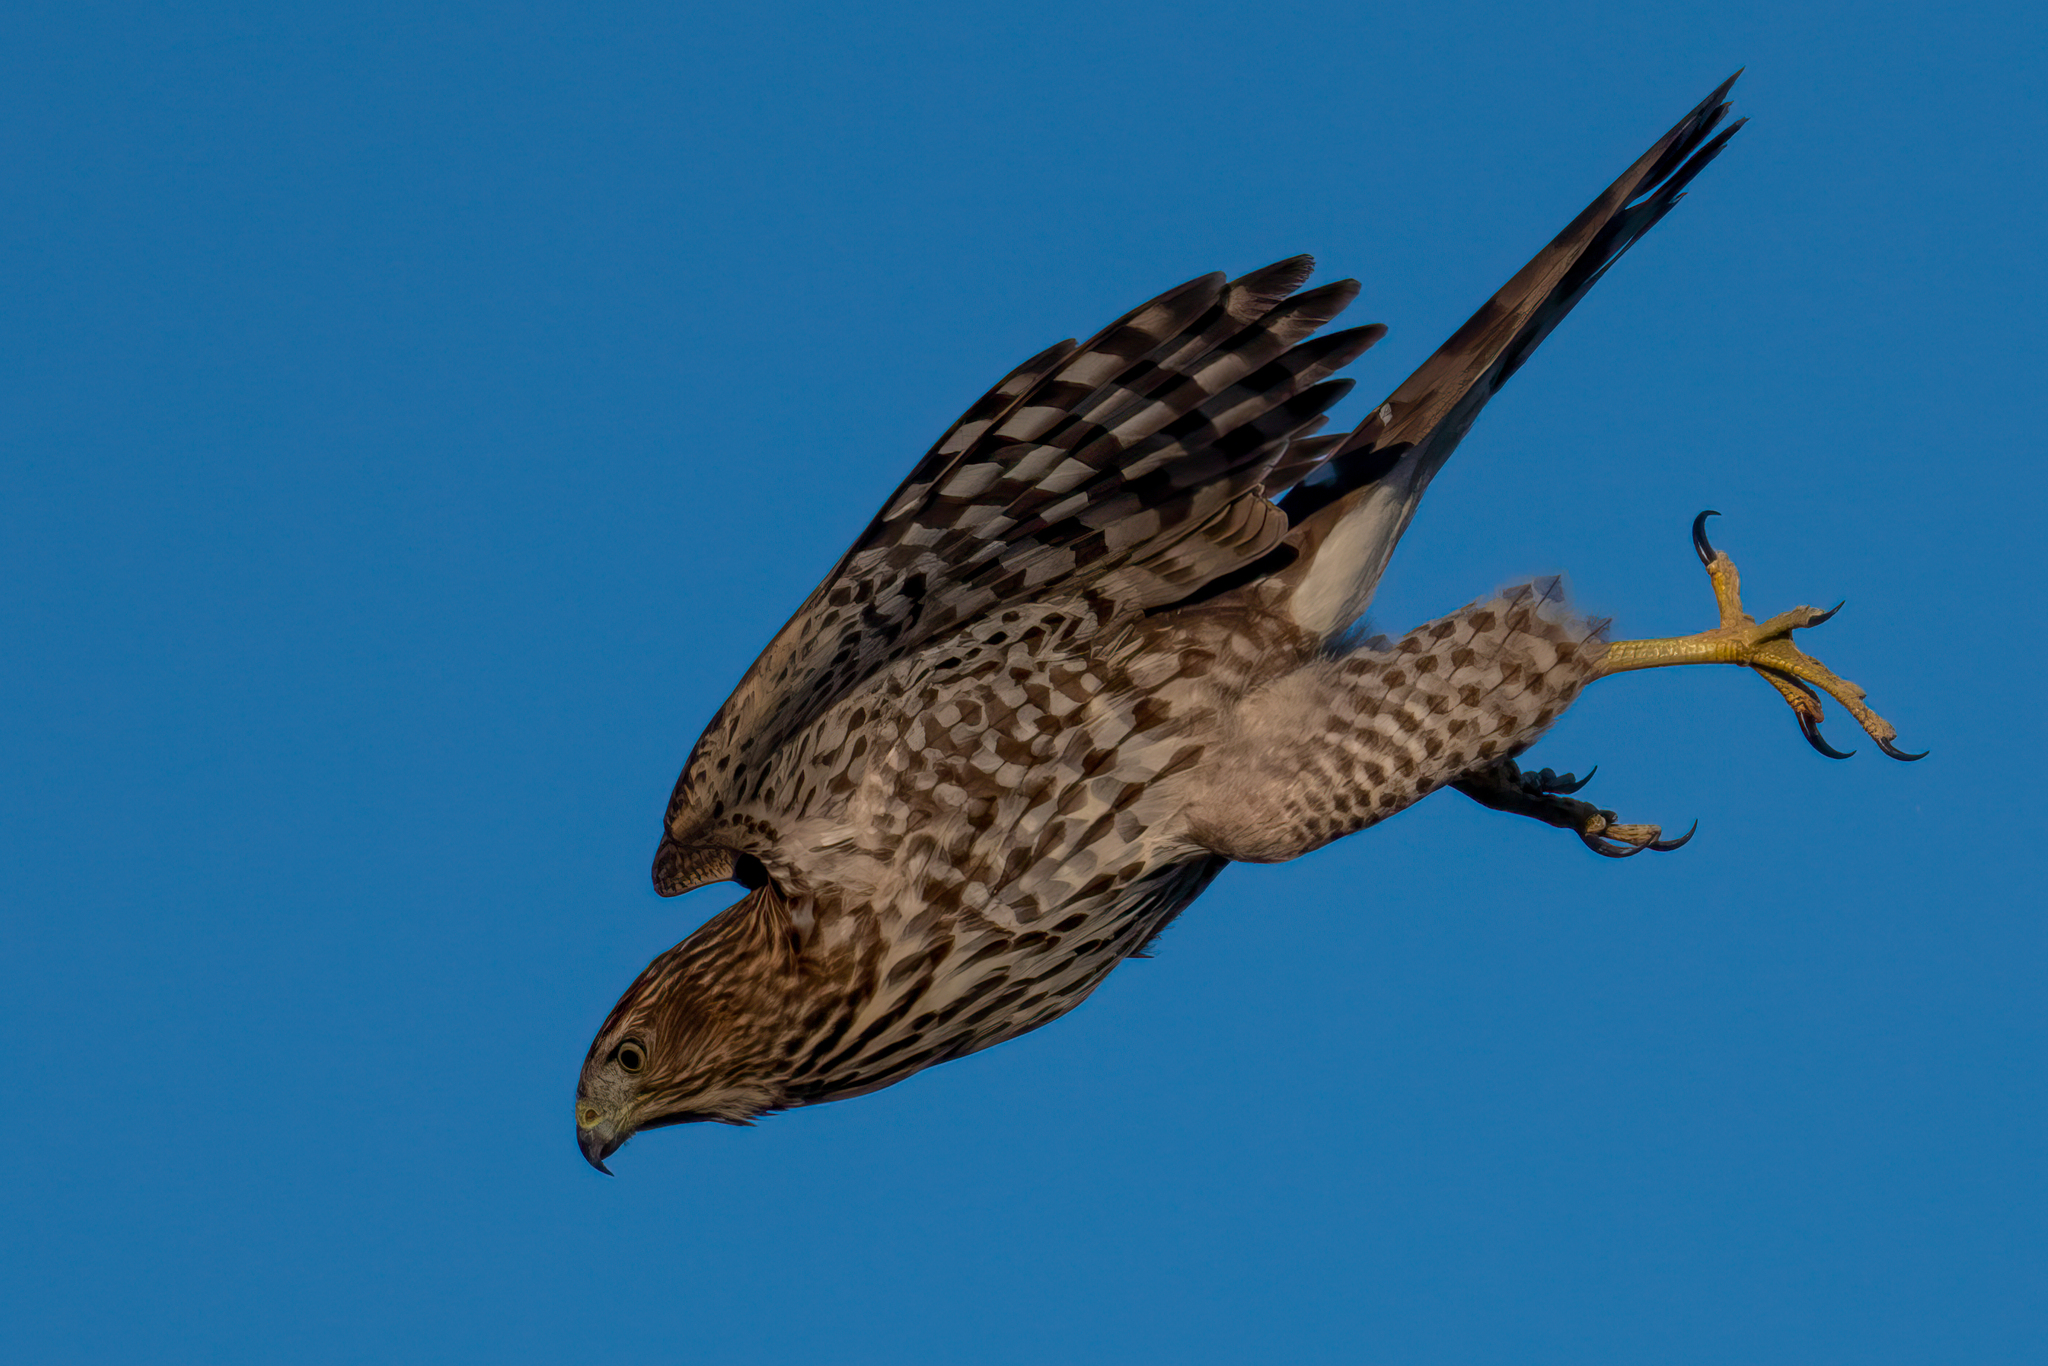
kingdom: Animalia
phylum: Chordata
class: Aves
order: Accipitriformes
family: Accipitridae
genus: Accipiter
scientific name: Accipiter cooperii
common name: Cooper's hawk
